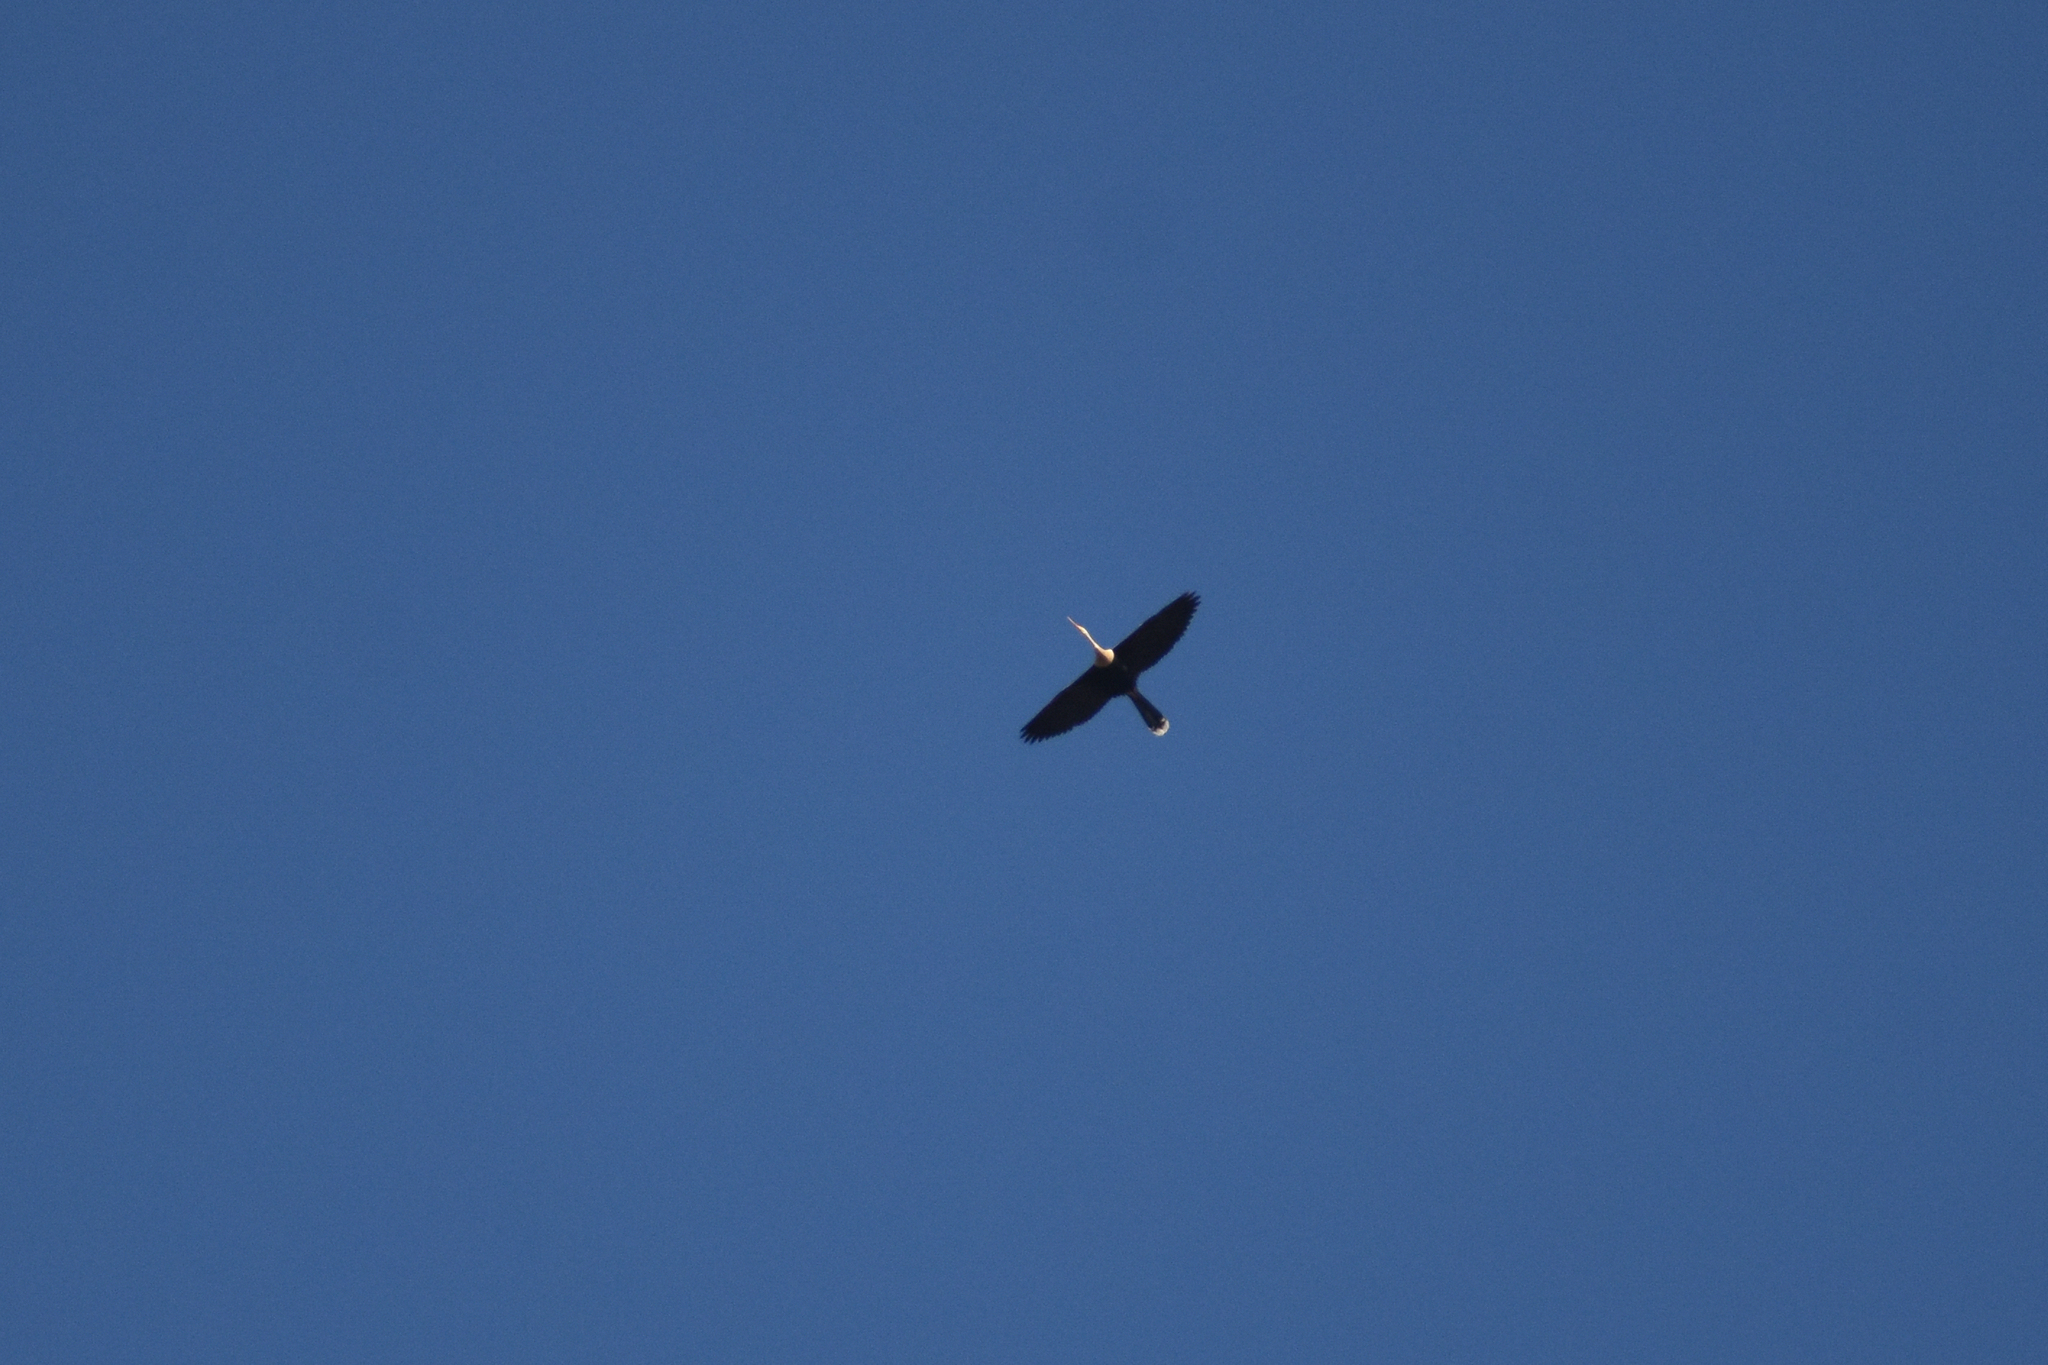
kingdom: Animalia
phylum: Chordata
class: Aves
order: Suliformes
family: Anhingidae
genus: Anhinga
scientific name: Anhinga anhinga
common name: Anhinga
